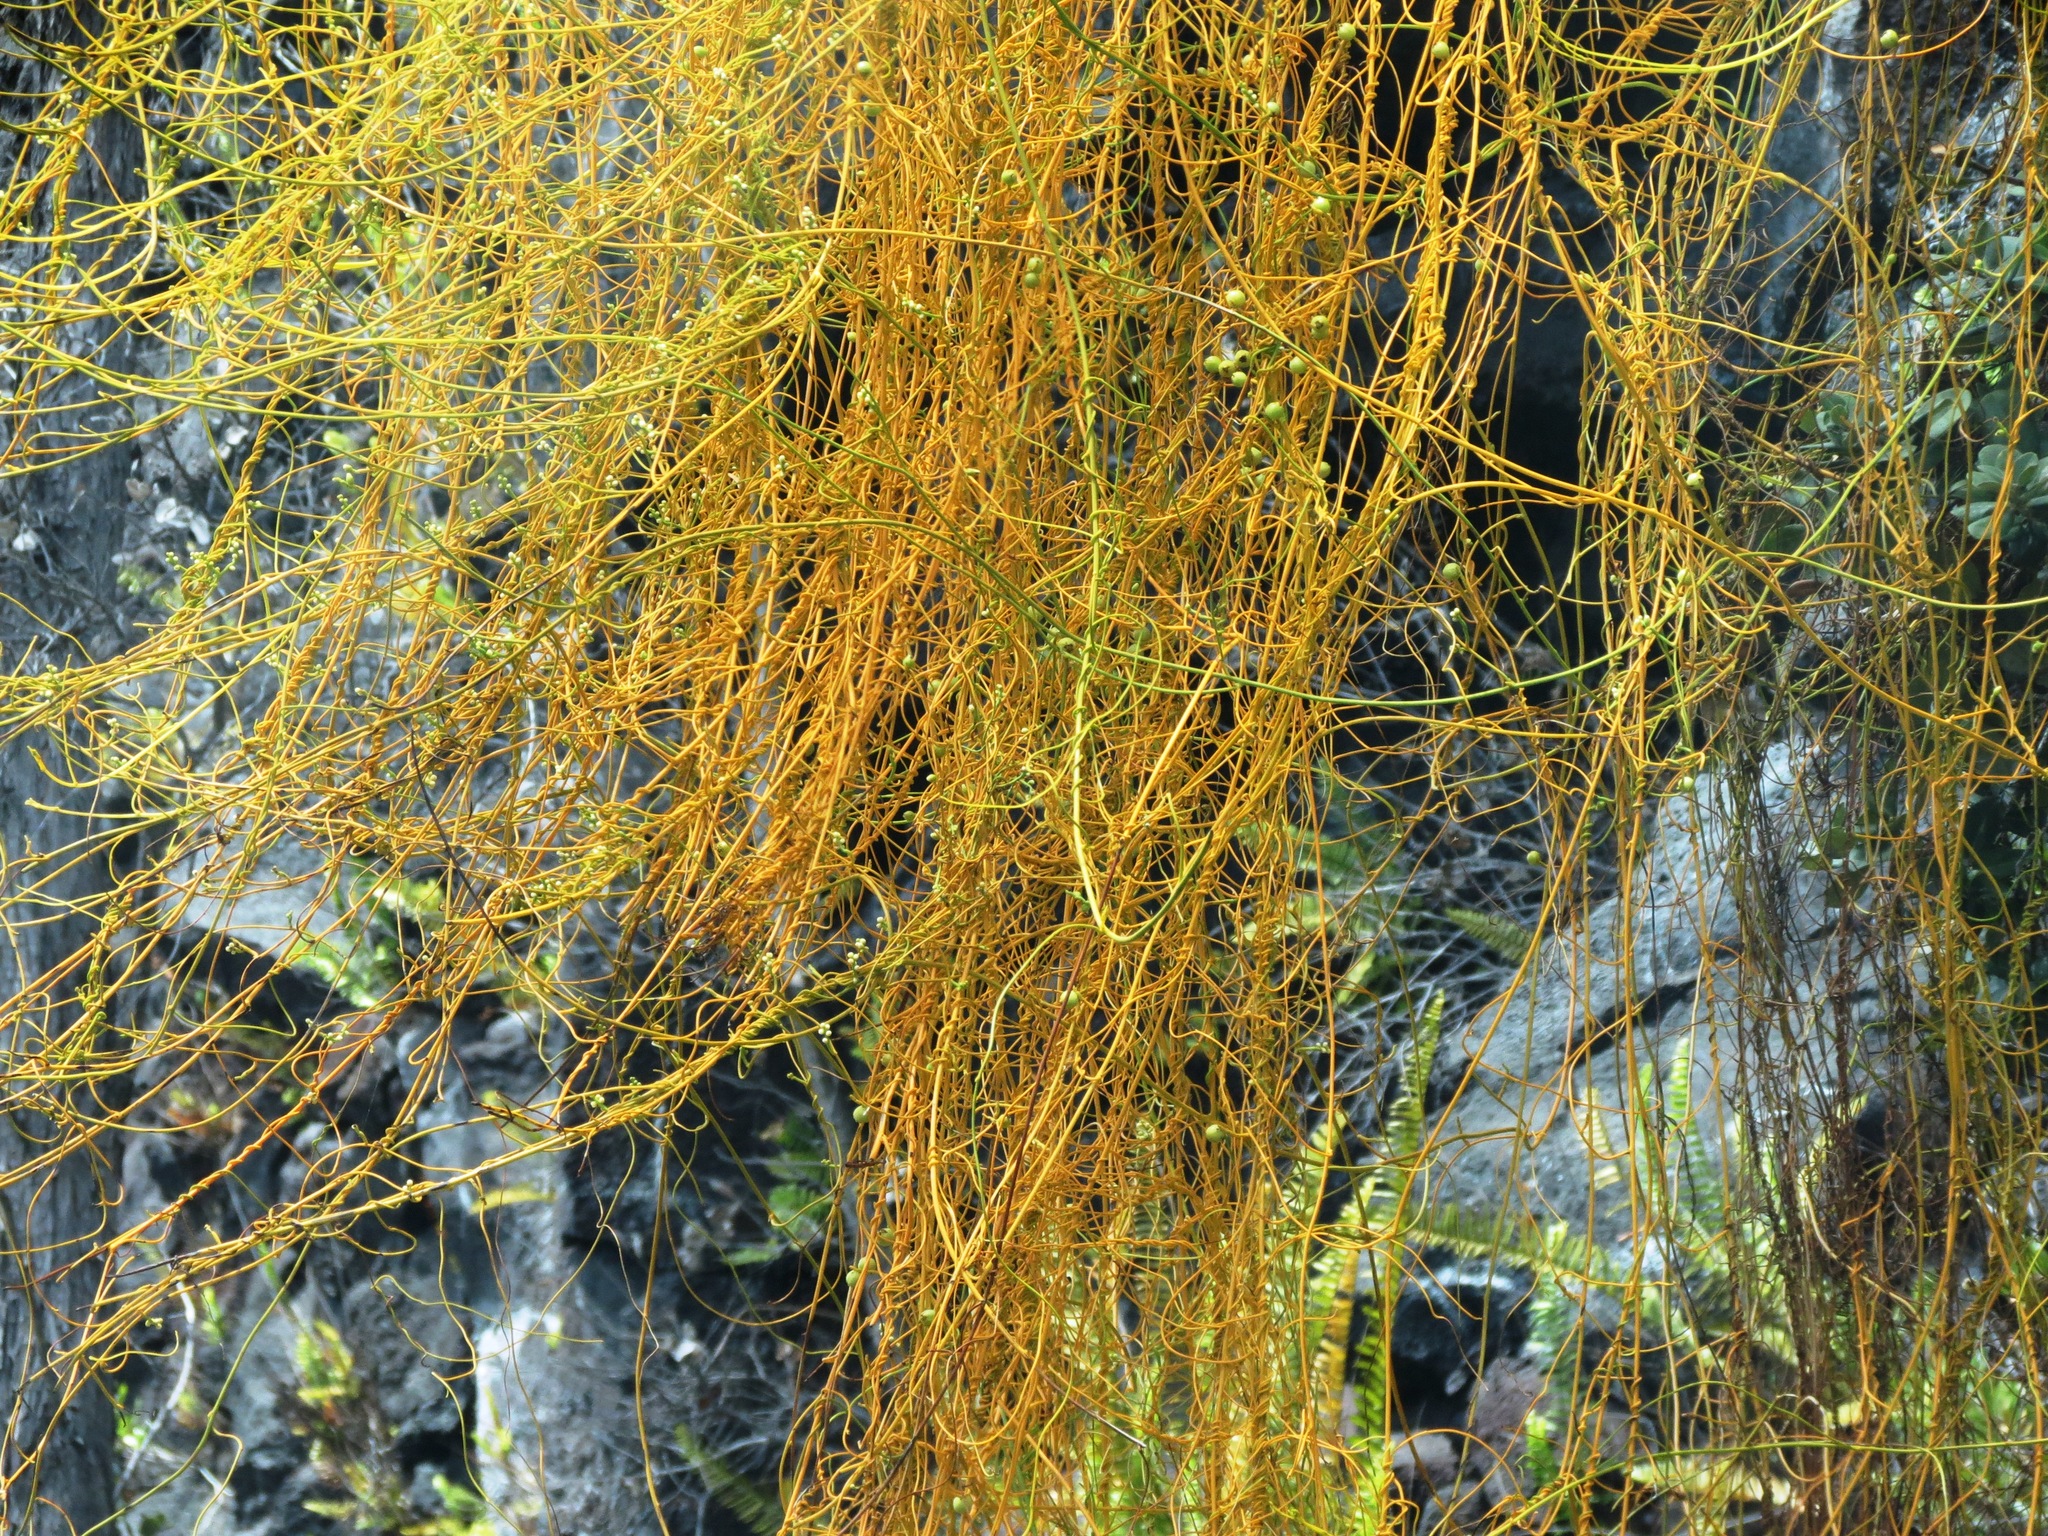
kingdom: Plantae
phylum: Tracheophyta
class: Magnoliopsida
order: Laurales
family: Lauraceae
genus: Cassytha
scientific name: Cassytha filiformis
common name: Dodder-laurel
